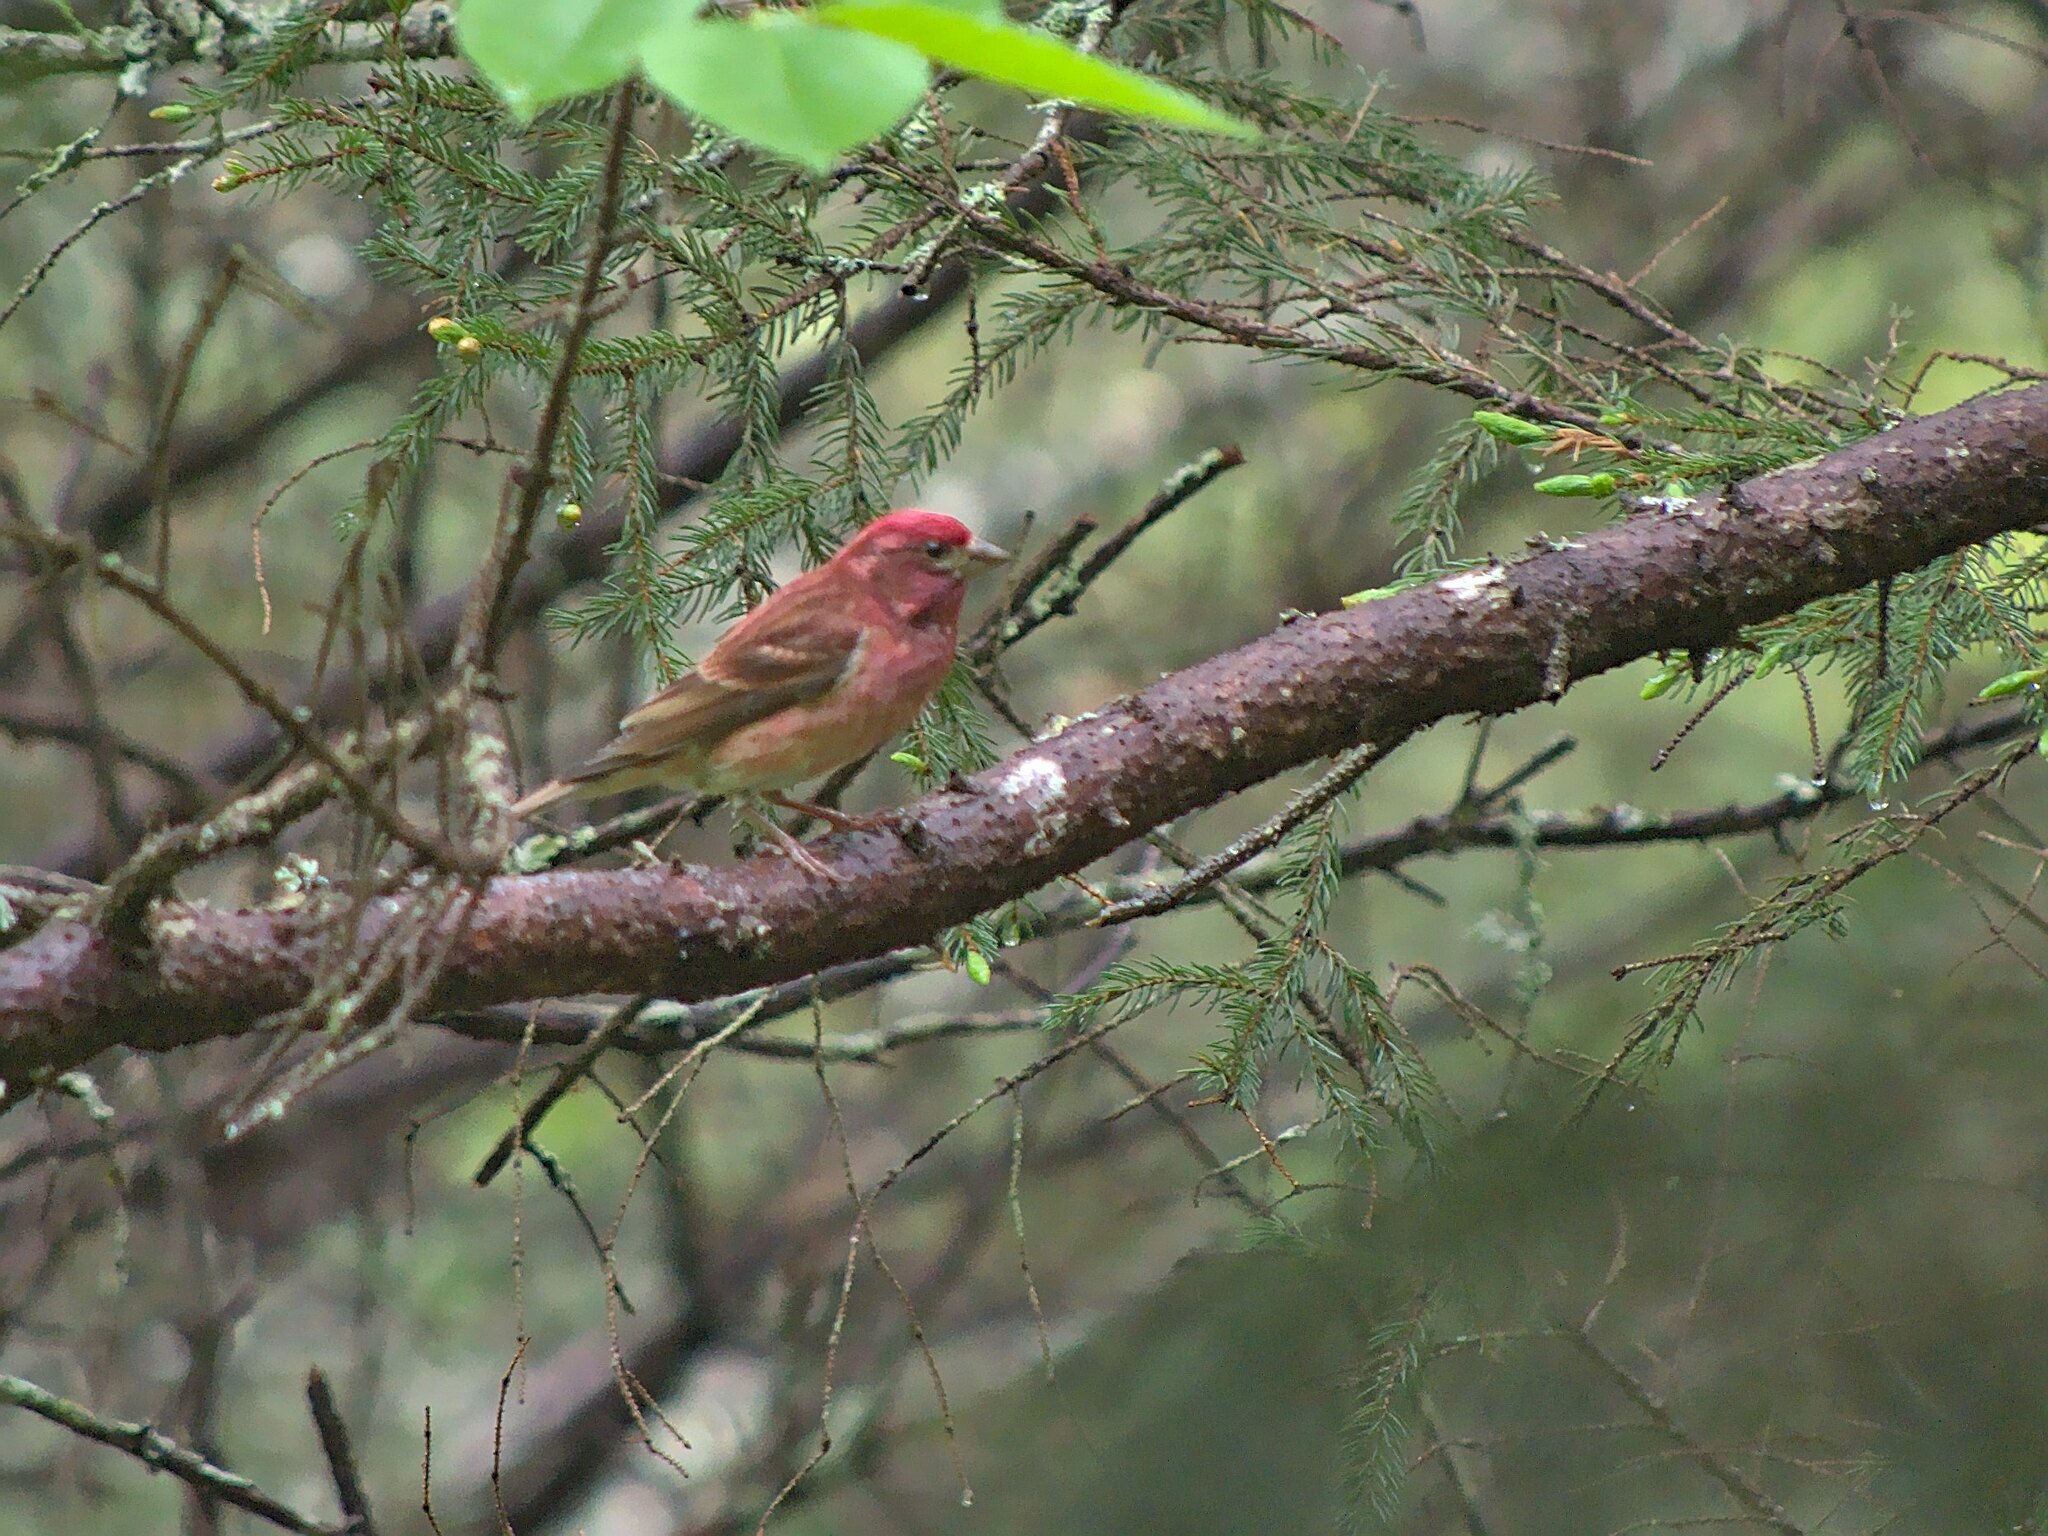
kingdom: Animalia
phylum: Chordata
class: Aves
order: Passeriformes
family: Fringillidae
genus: Haemorhous
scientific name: Haemorhous purpureus
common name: Purple finch
